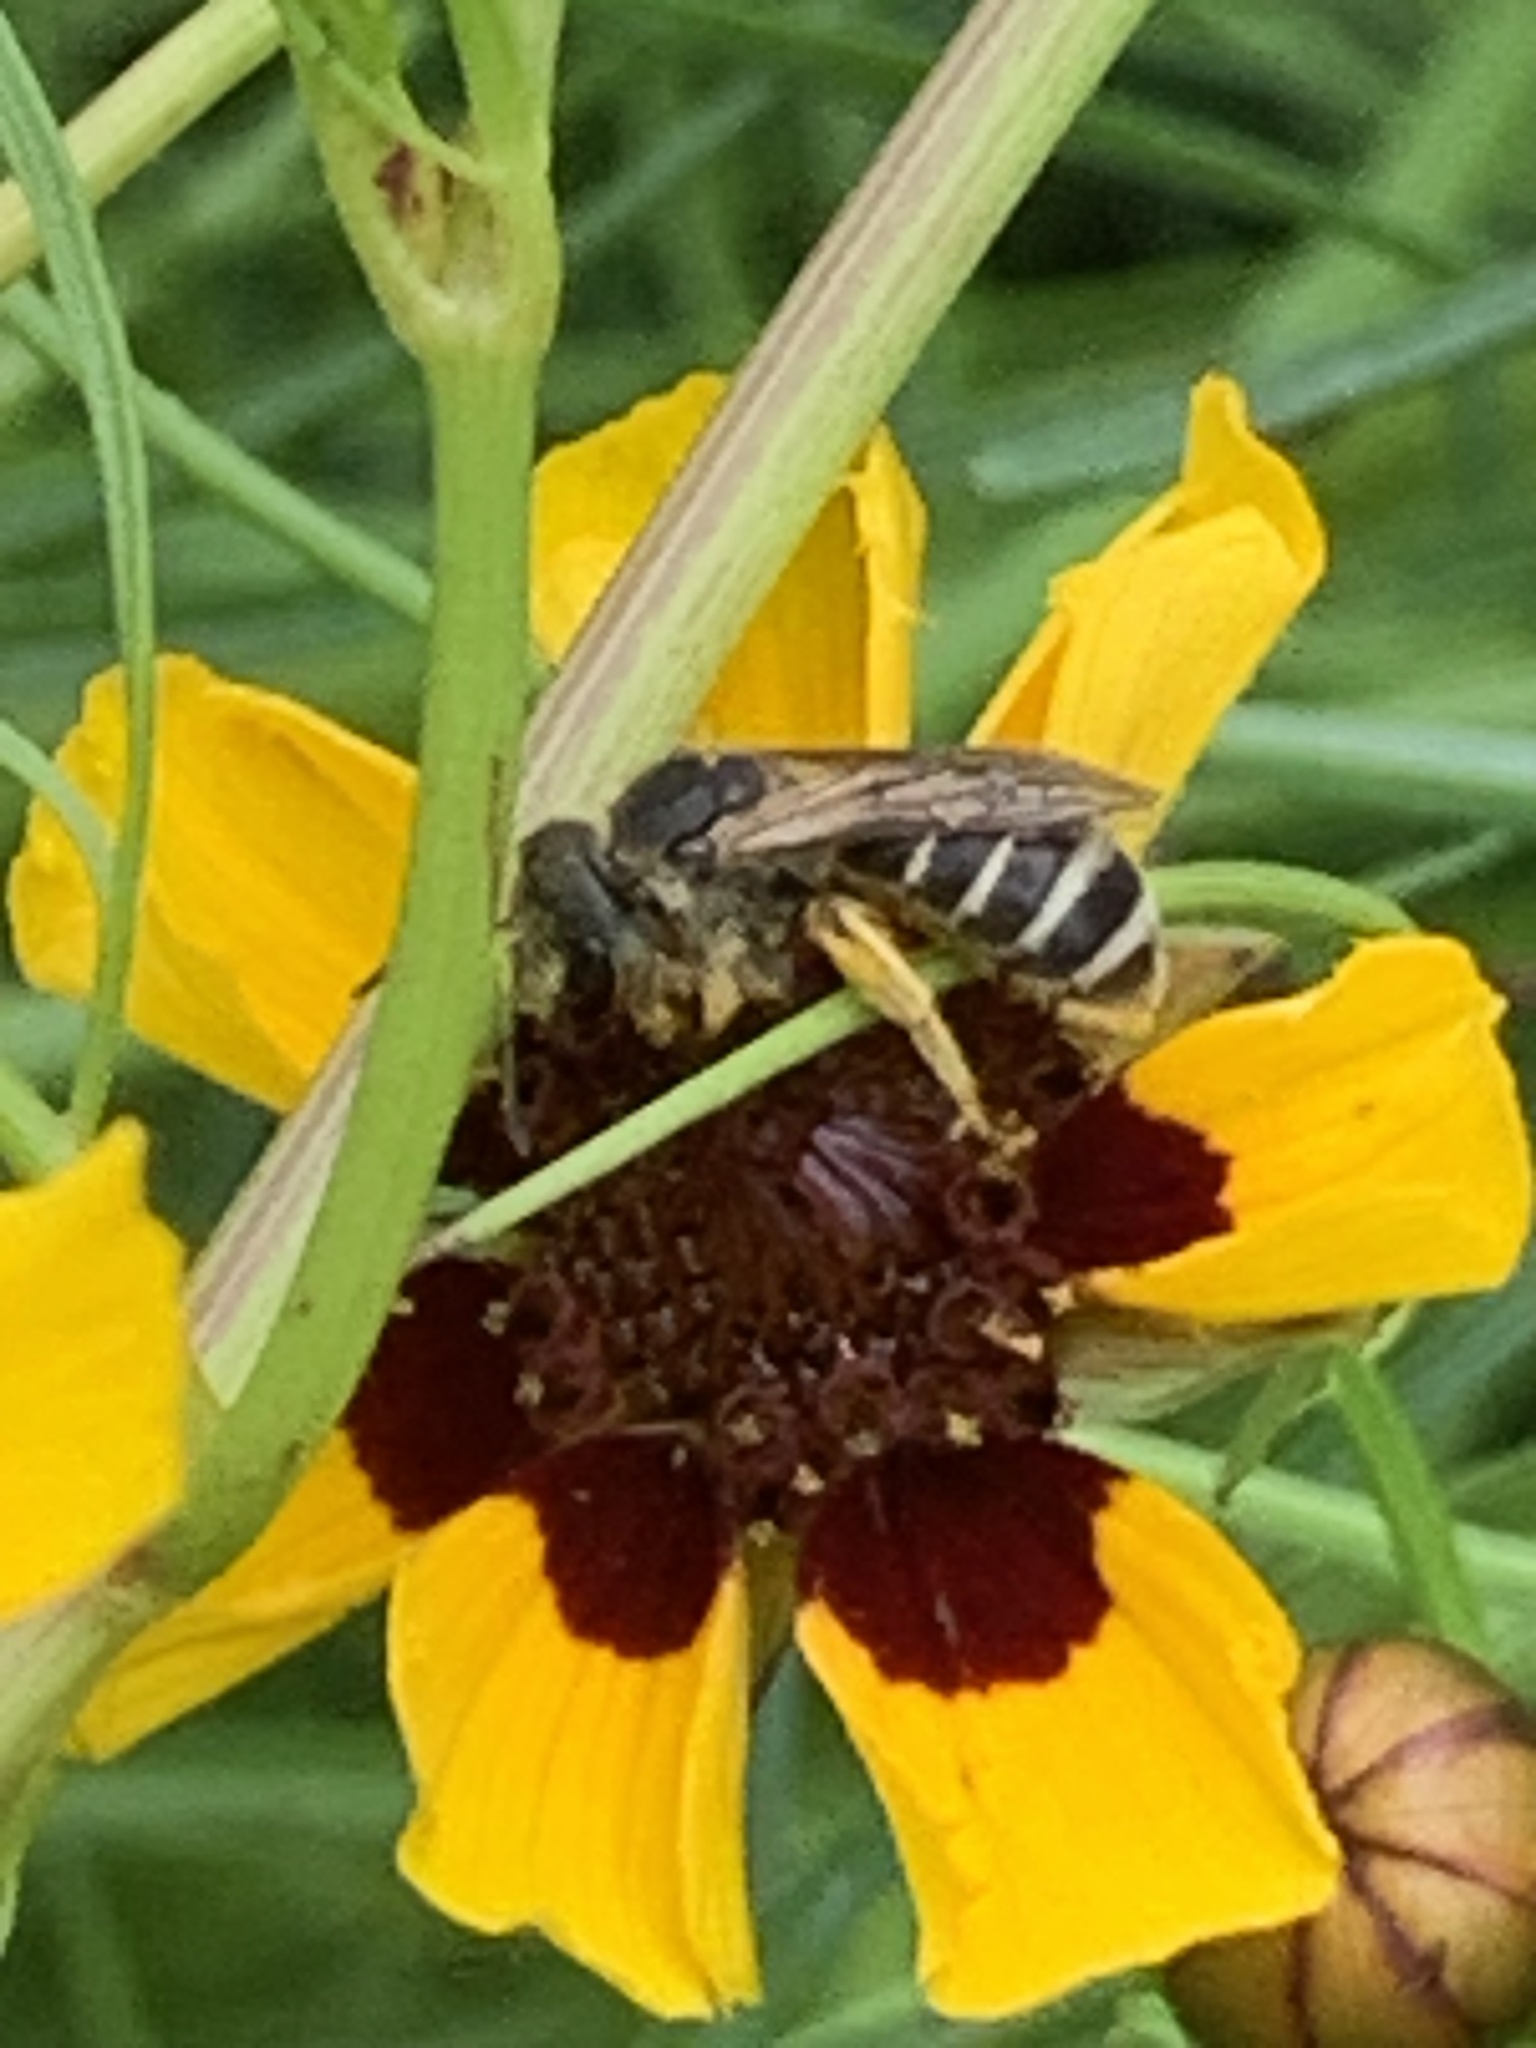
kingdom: Animalia
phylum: Arthropoda
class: Insecta
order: Hymenoptera
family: Halictidae
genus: Halictus
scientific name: Halictus ligatus
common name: Ligated furrow bee
